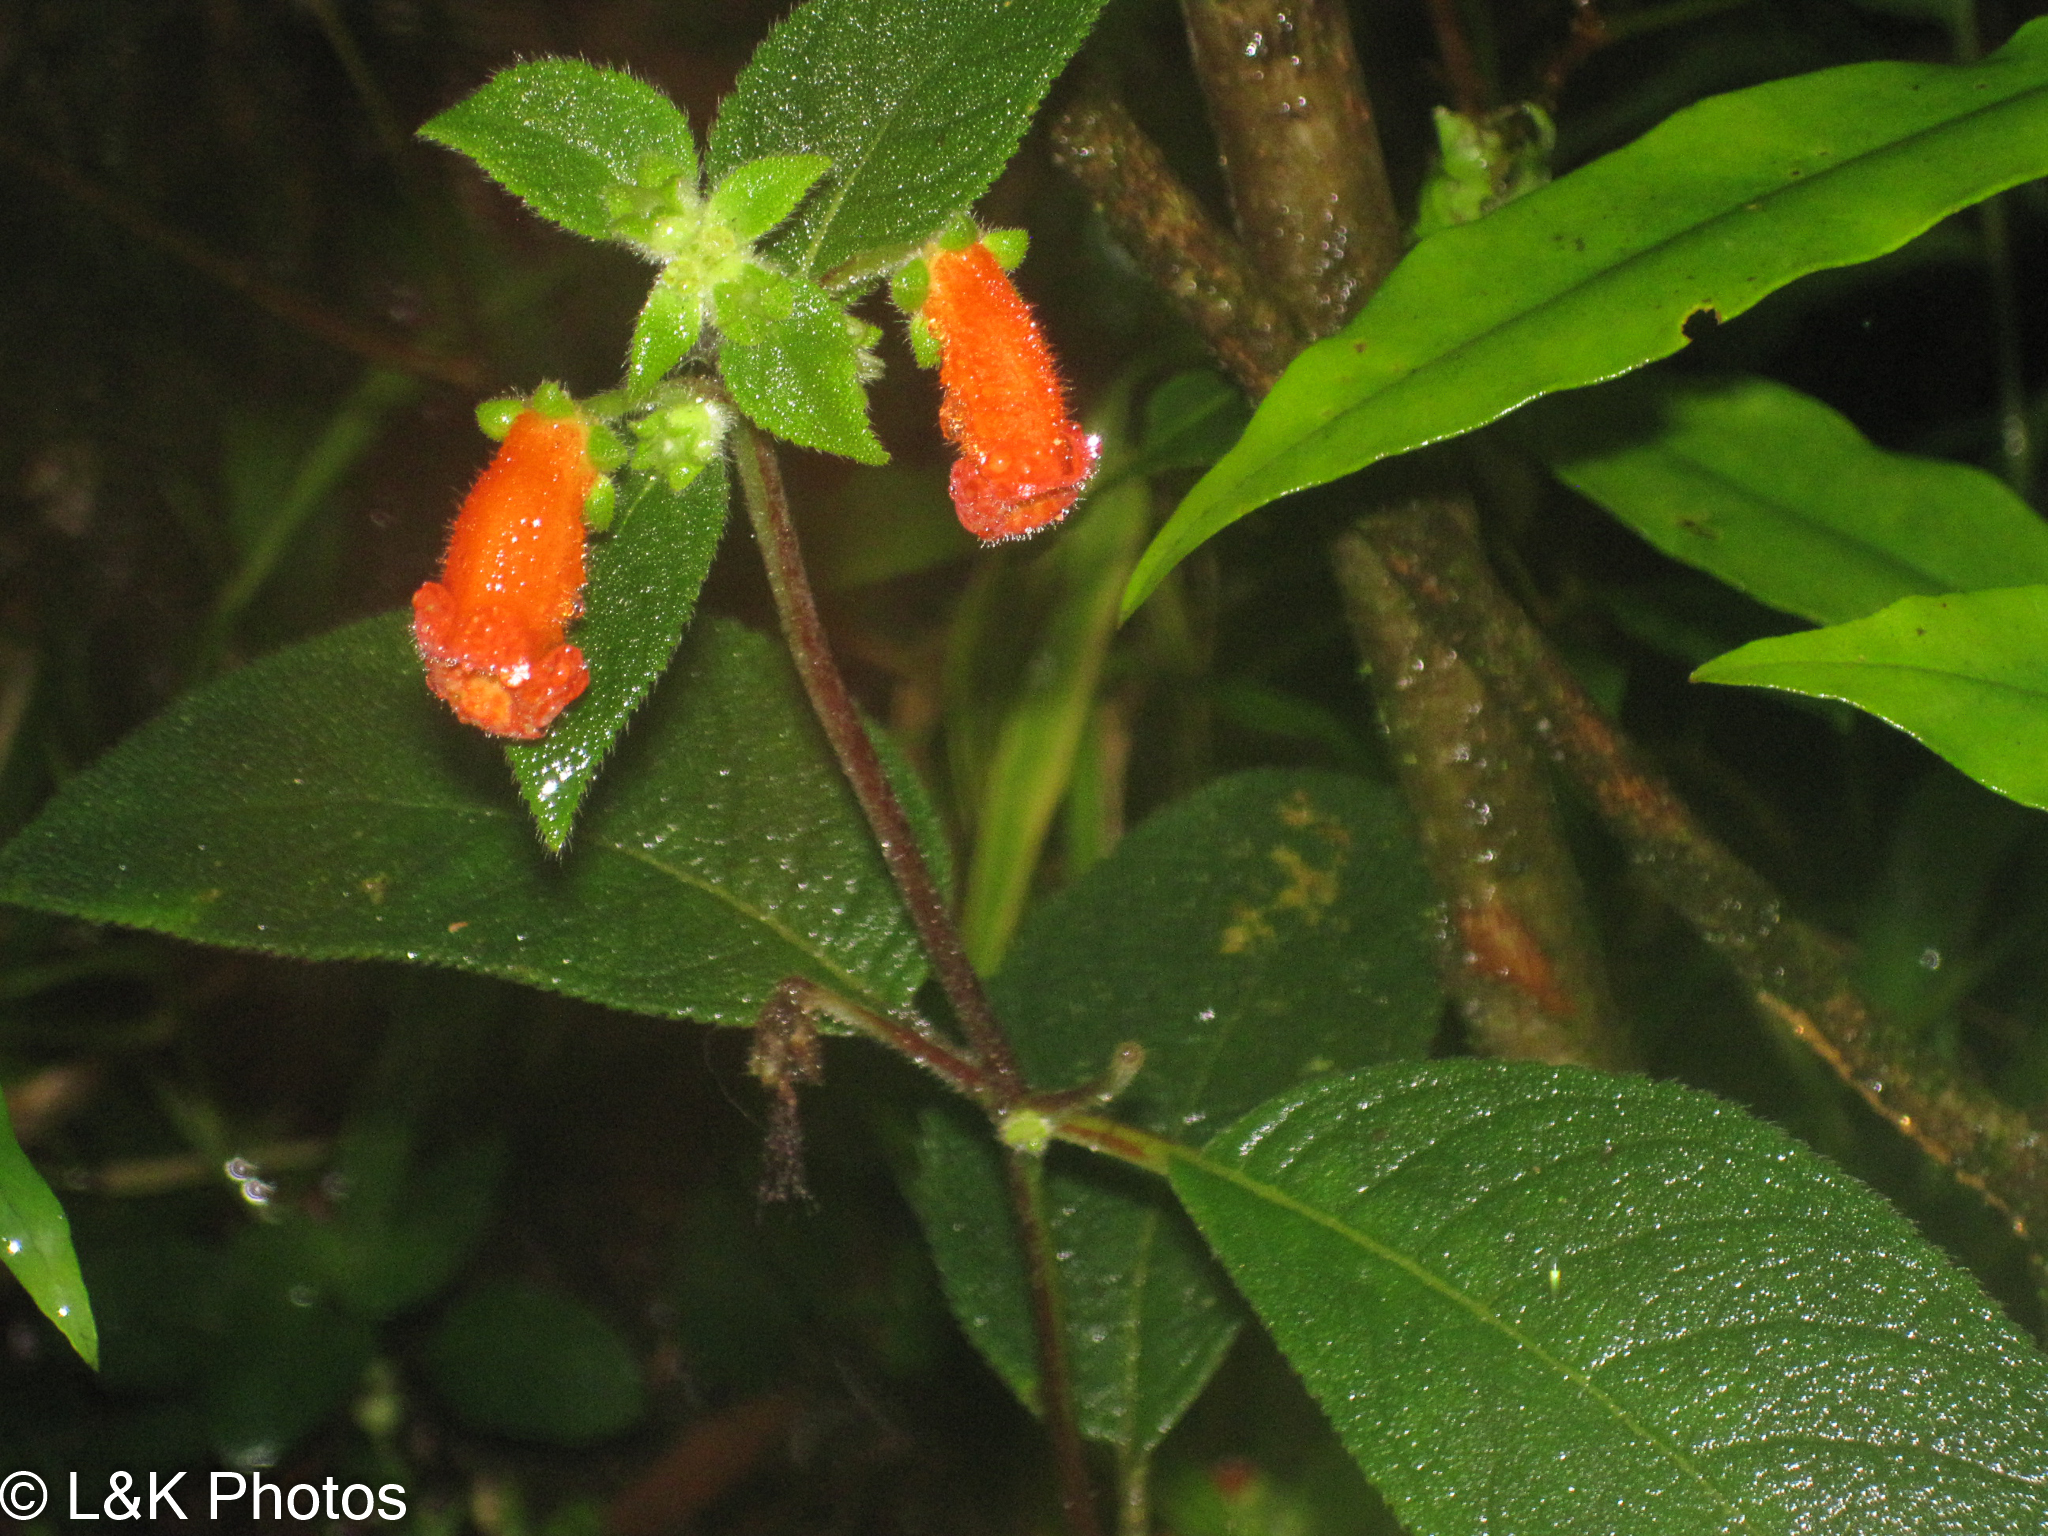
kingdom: Plantae
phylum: Tracheophyta
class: Magnoliopsida
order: Lamiales
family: Gesneriaceae
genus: Kohleria
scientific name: Kohleria spicata
